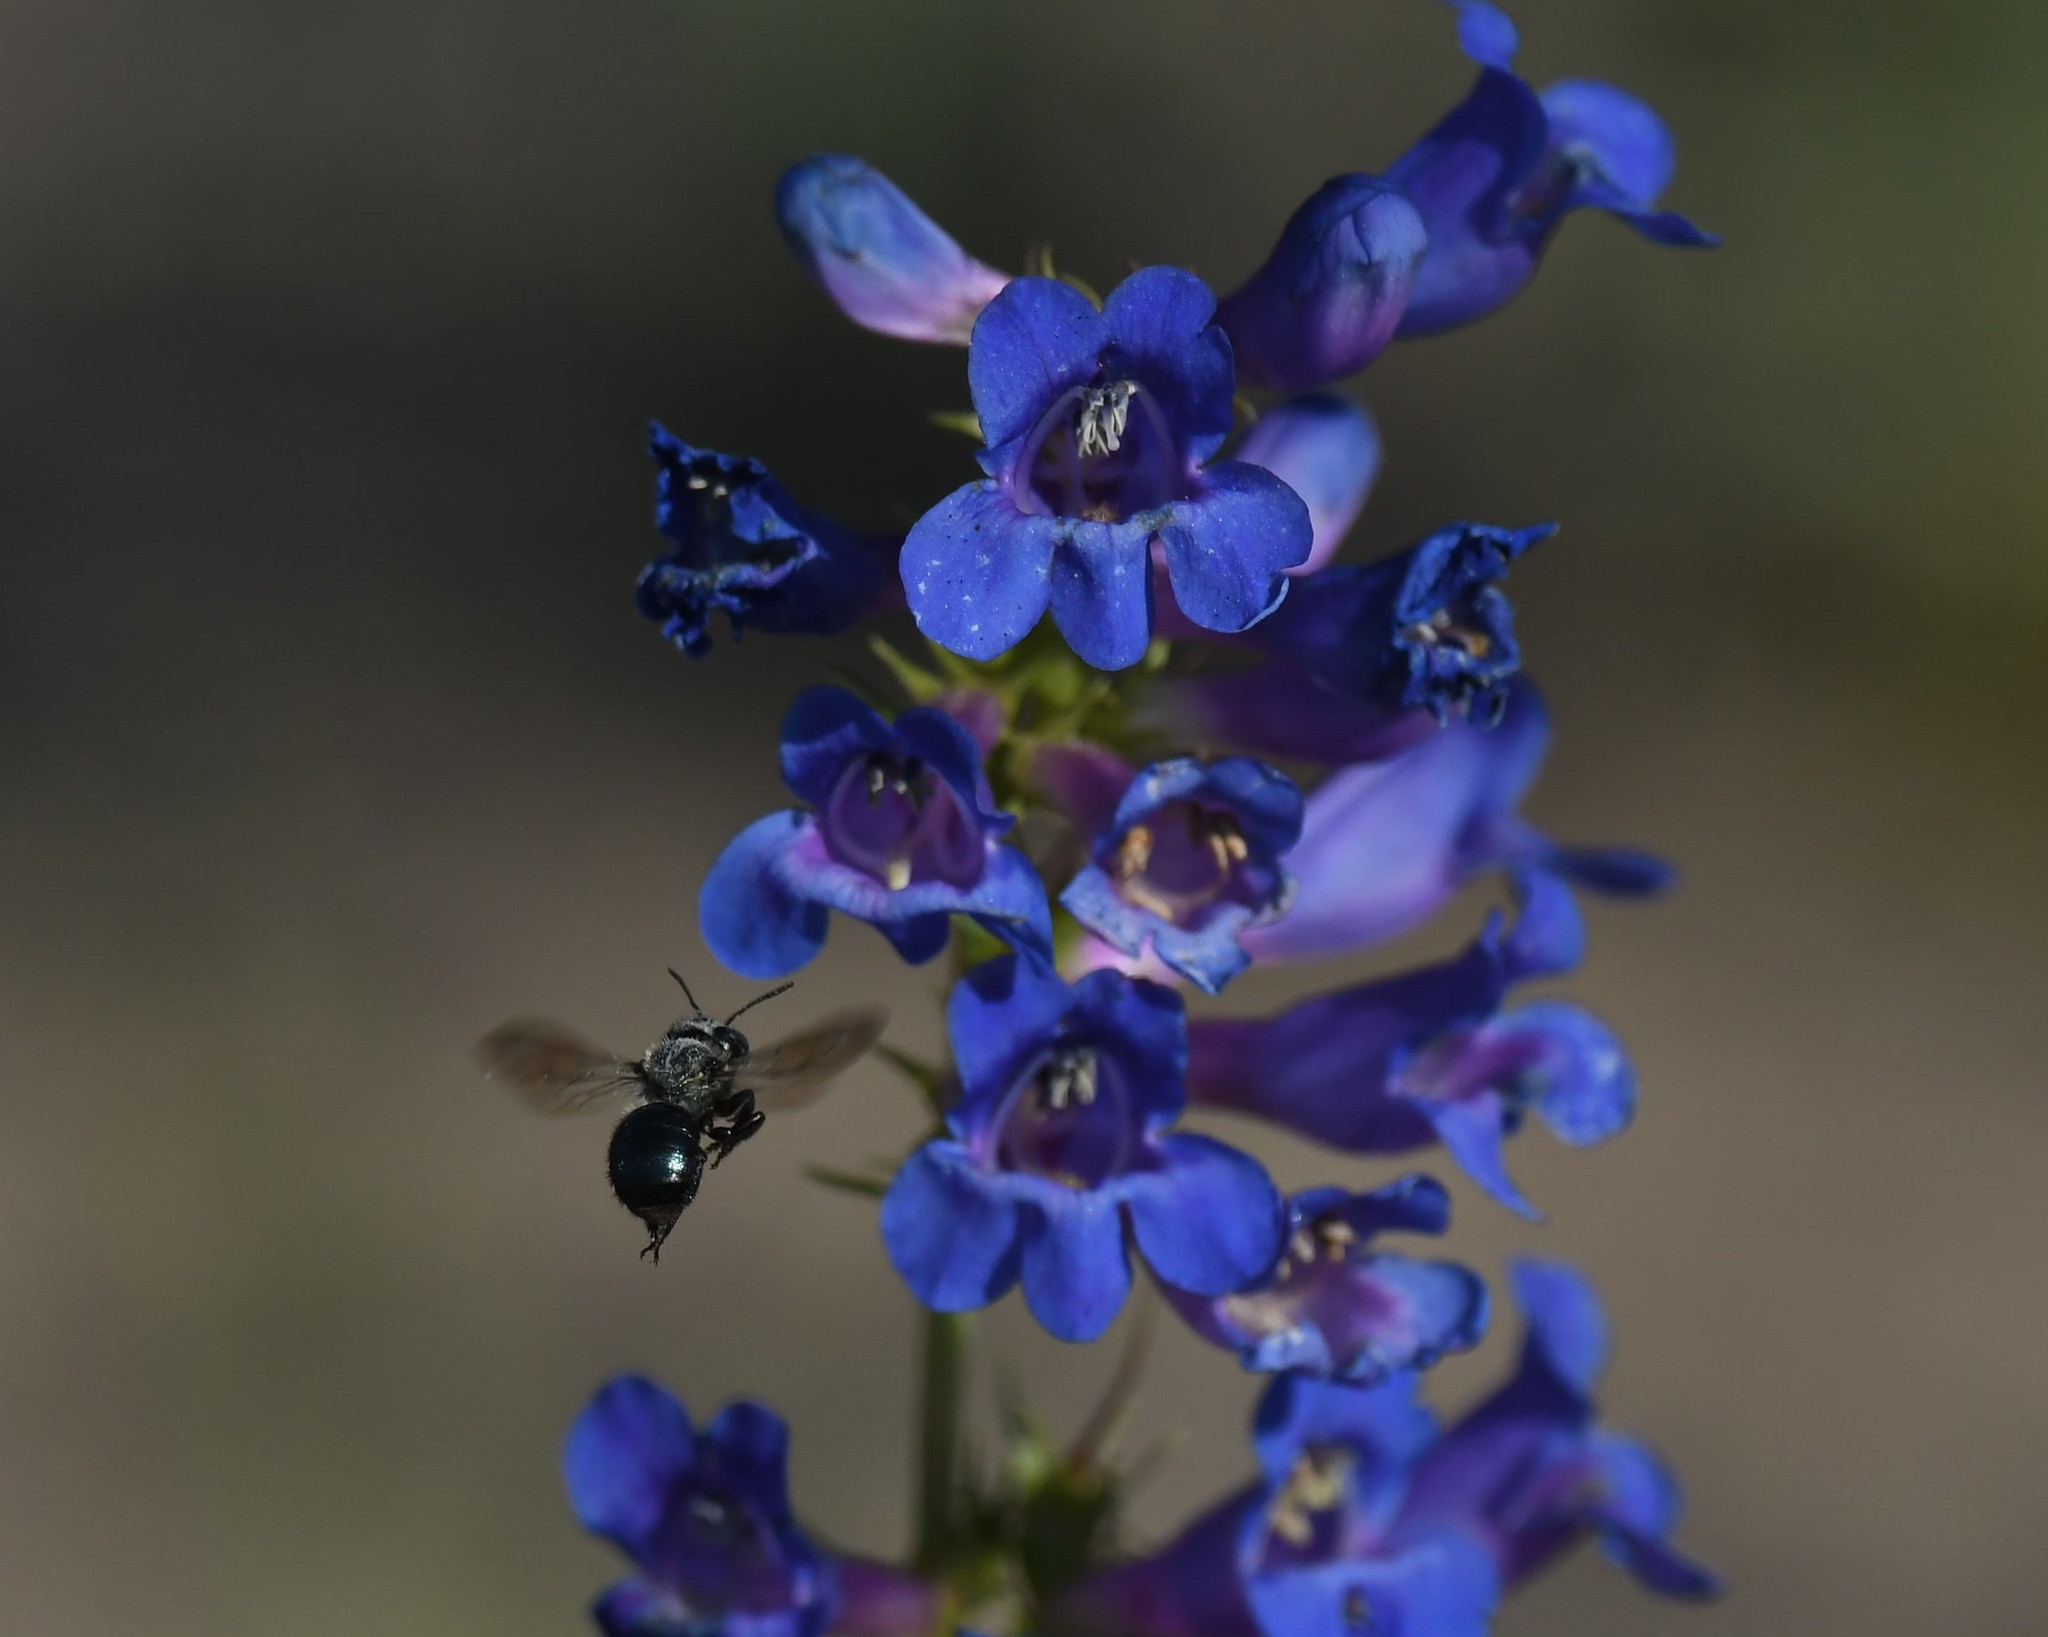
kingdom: Plantae
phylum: Tracheophyta
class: Magnoliopsida
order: Lamiales
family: Plantaginaceae
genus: Penstemon
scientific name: Penstemon cyananthus
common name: Wasatch penstemon
